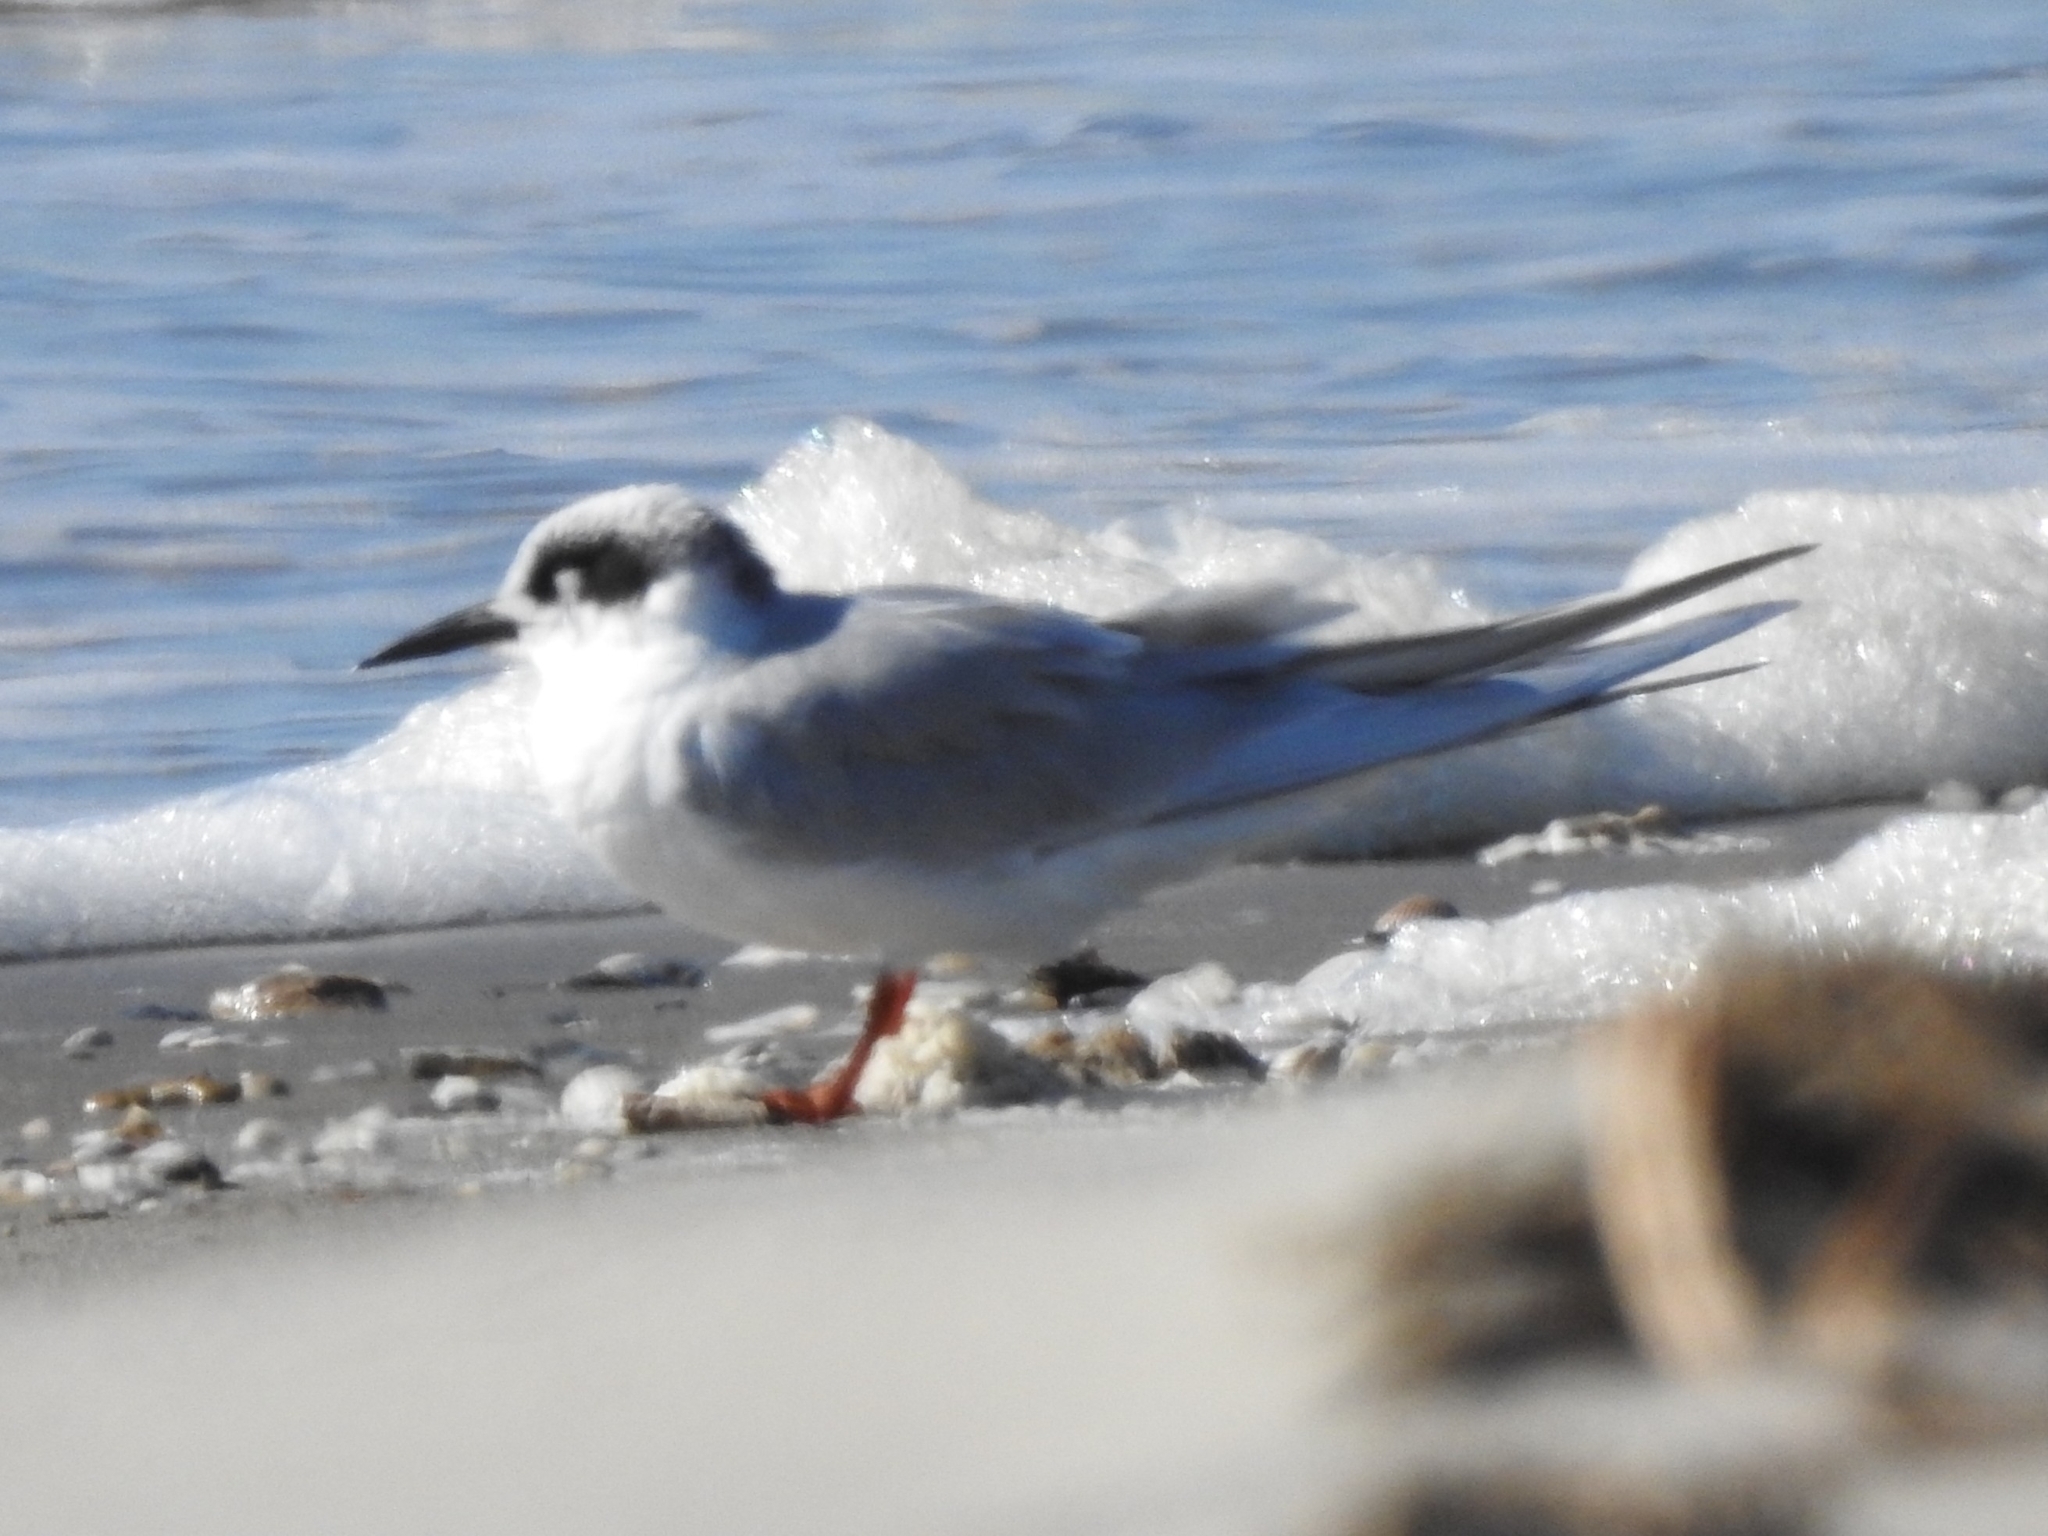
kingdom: Animalia
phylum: Chordata
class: Aves
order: Charadriiformes
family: Laridae
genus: Sterna
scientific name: Sterna forsteri
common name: Forster's tern
